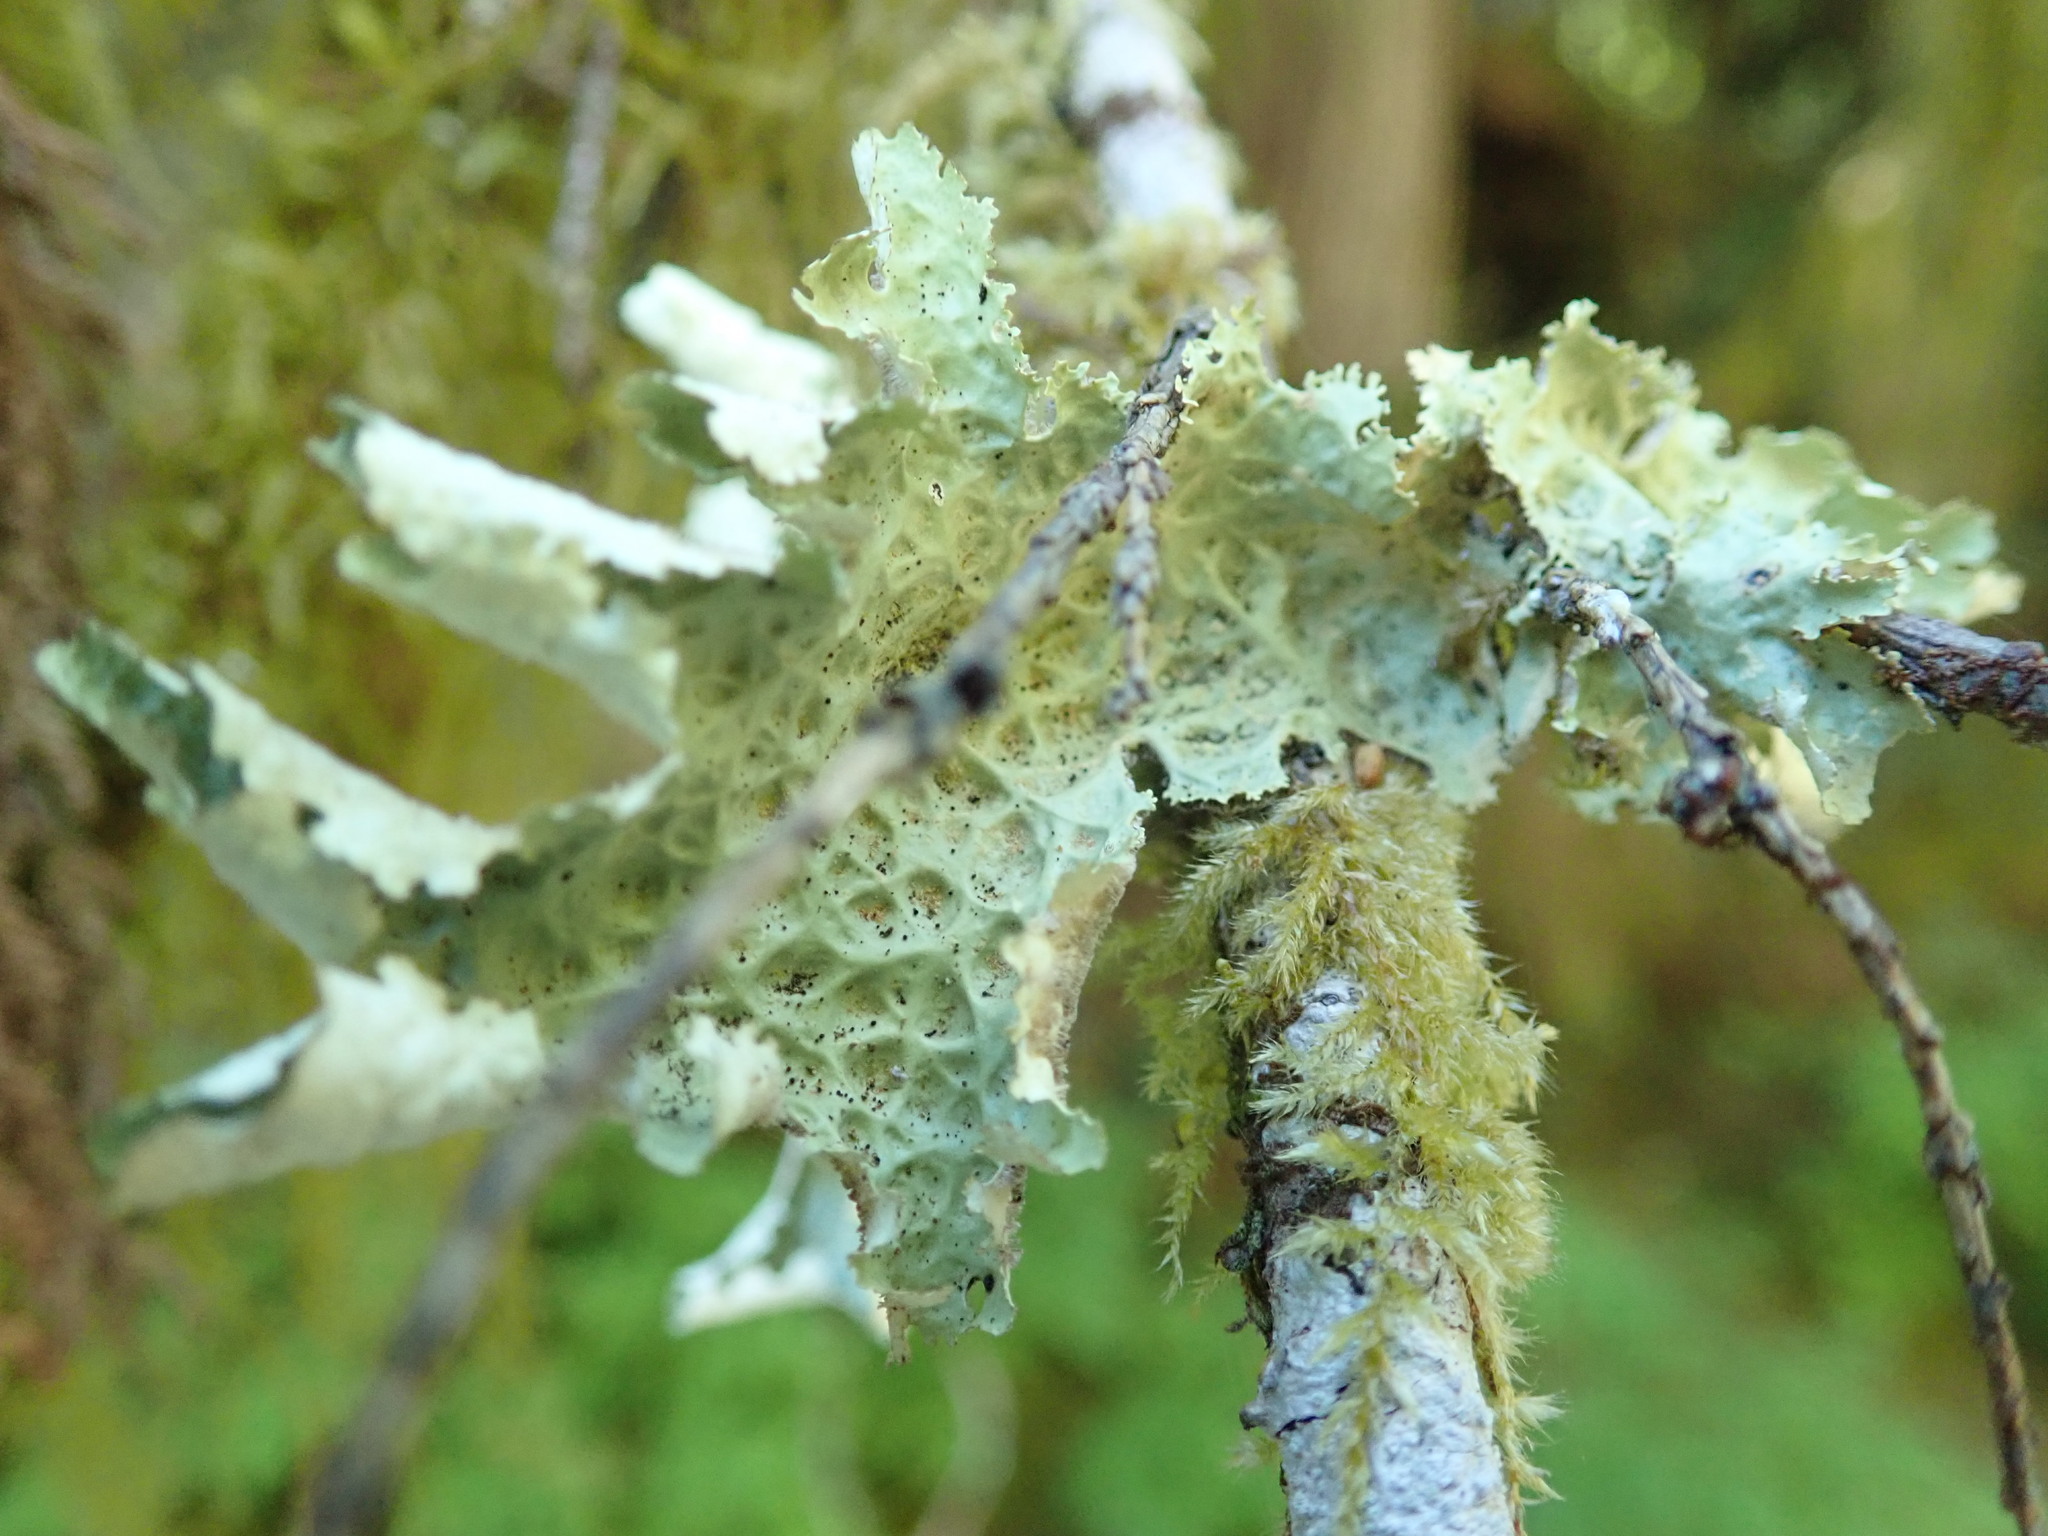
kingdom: Fungi
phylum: Ascomycota
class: Lecanoromycetes
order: Peltigerales
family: Lobariaceae
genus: Lobaria
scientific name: Lobaria oregana
